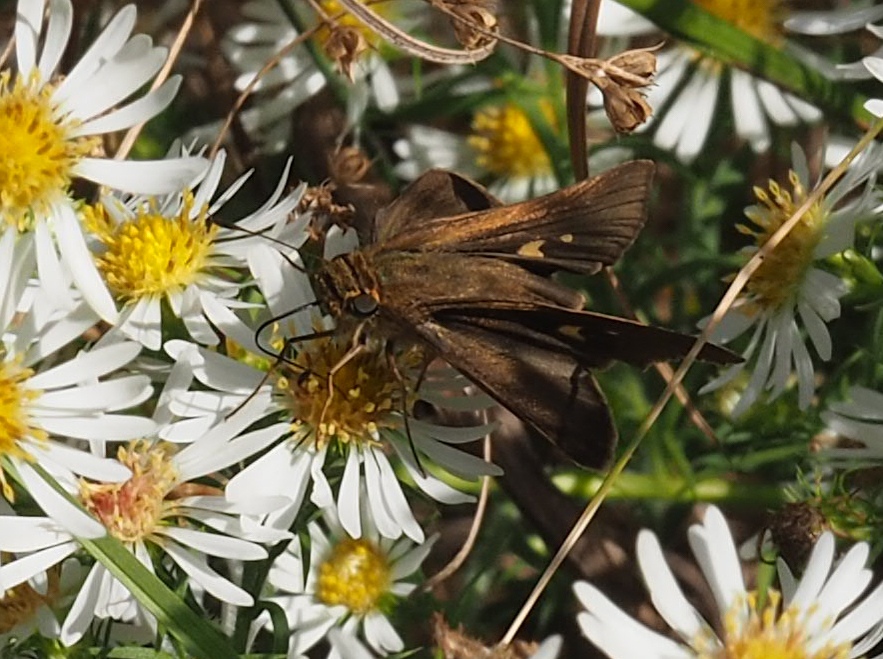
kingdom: Animalia
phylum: Arthropoda
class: Insecta
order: Lepidoptera
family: Hesperiidae
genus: Panoquina
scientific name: Panoquina ocola
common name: Ocola skipper
